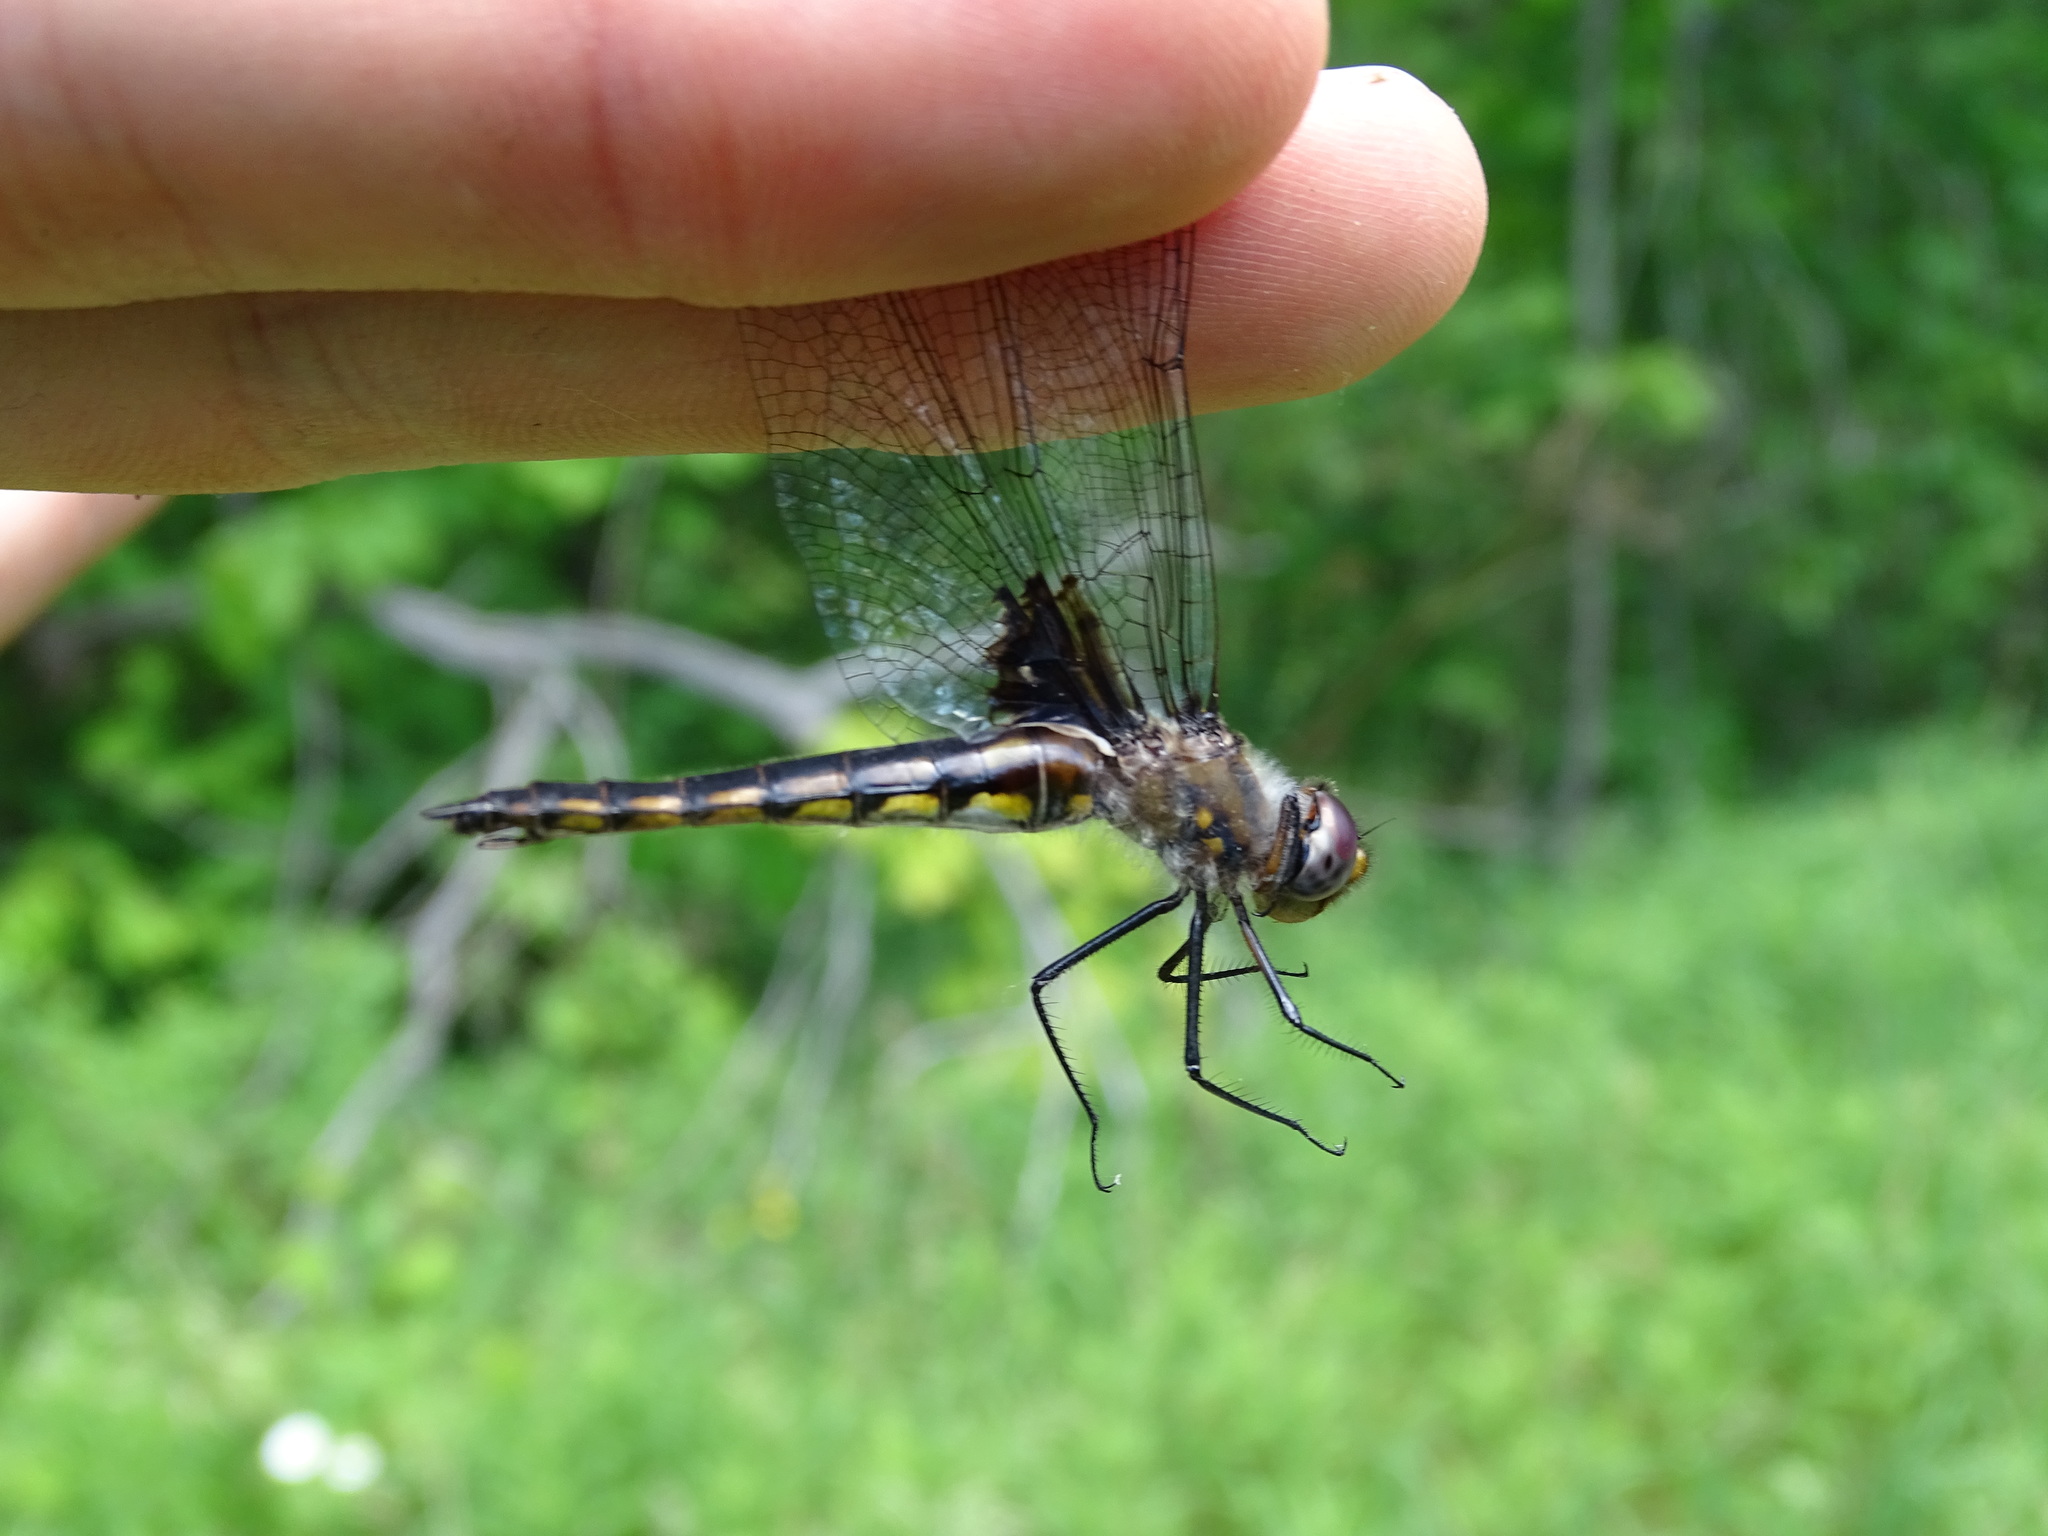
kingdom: Animalia
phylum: Arthropoda
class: Insecta
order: Odonata
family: Corduliidae
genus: Epitheca
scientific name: Epitheca cynosura
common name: Common baskettail
